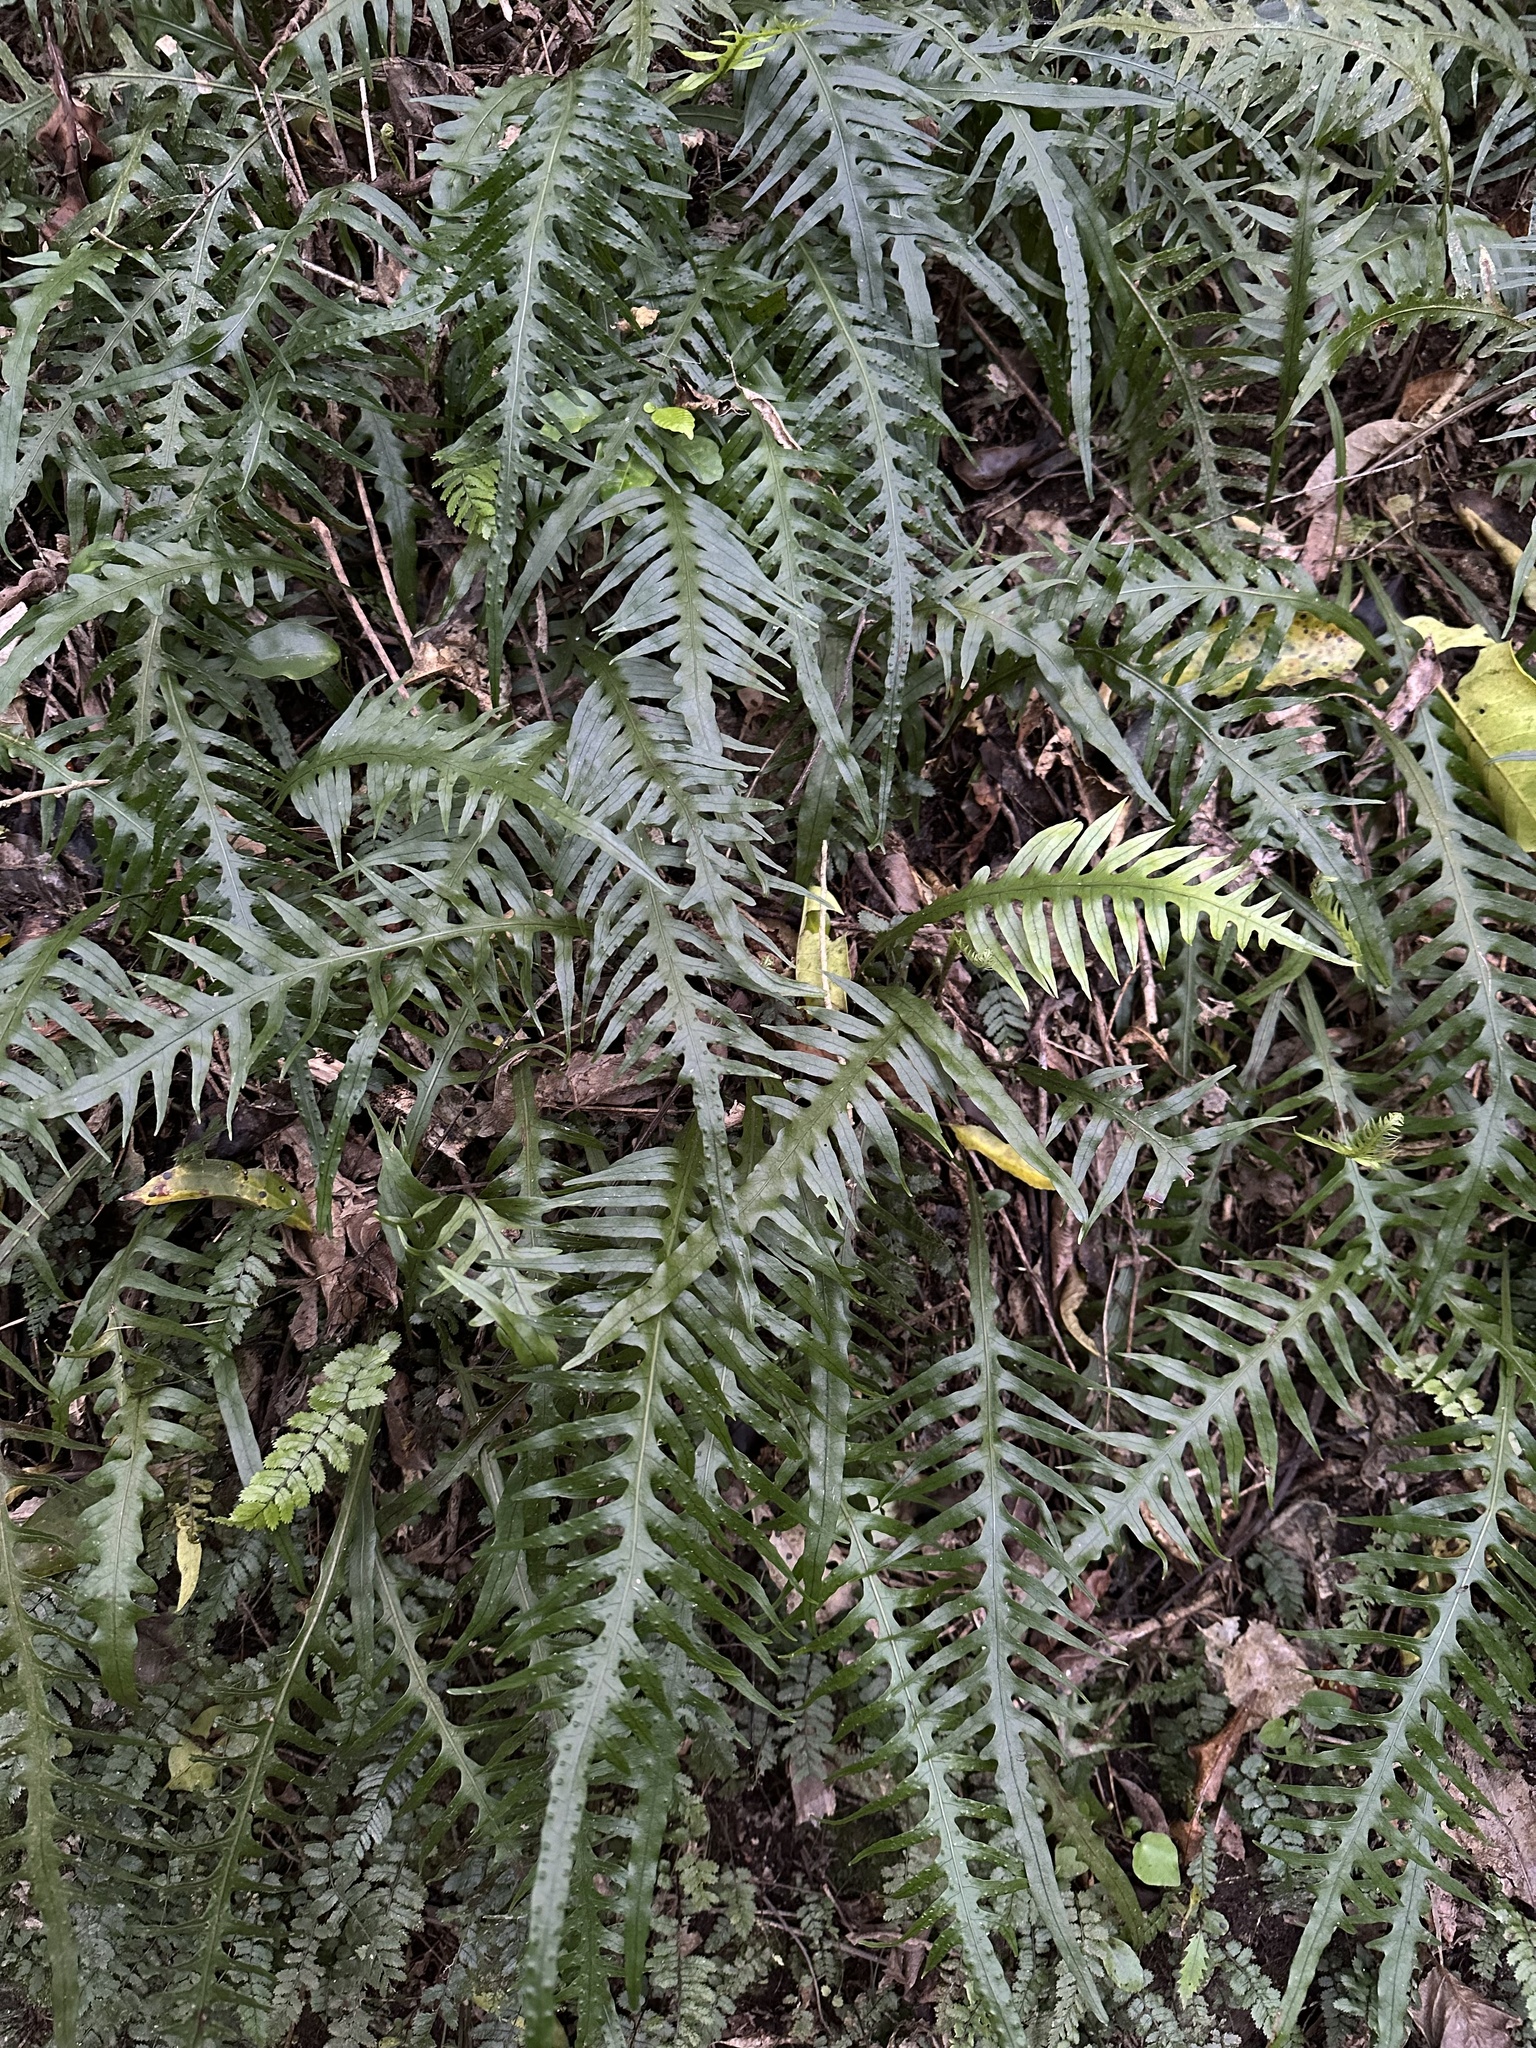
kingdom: Plantae
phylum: Tracheophyta
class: Polypodiopsida
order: Polypodiales
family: Polypodiaceae
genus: Lecanopteris
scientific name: Lecanopteris scandens
